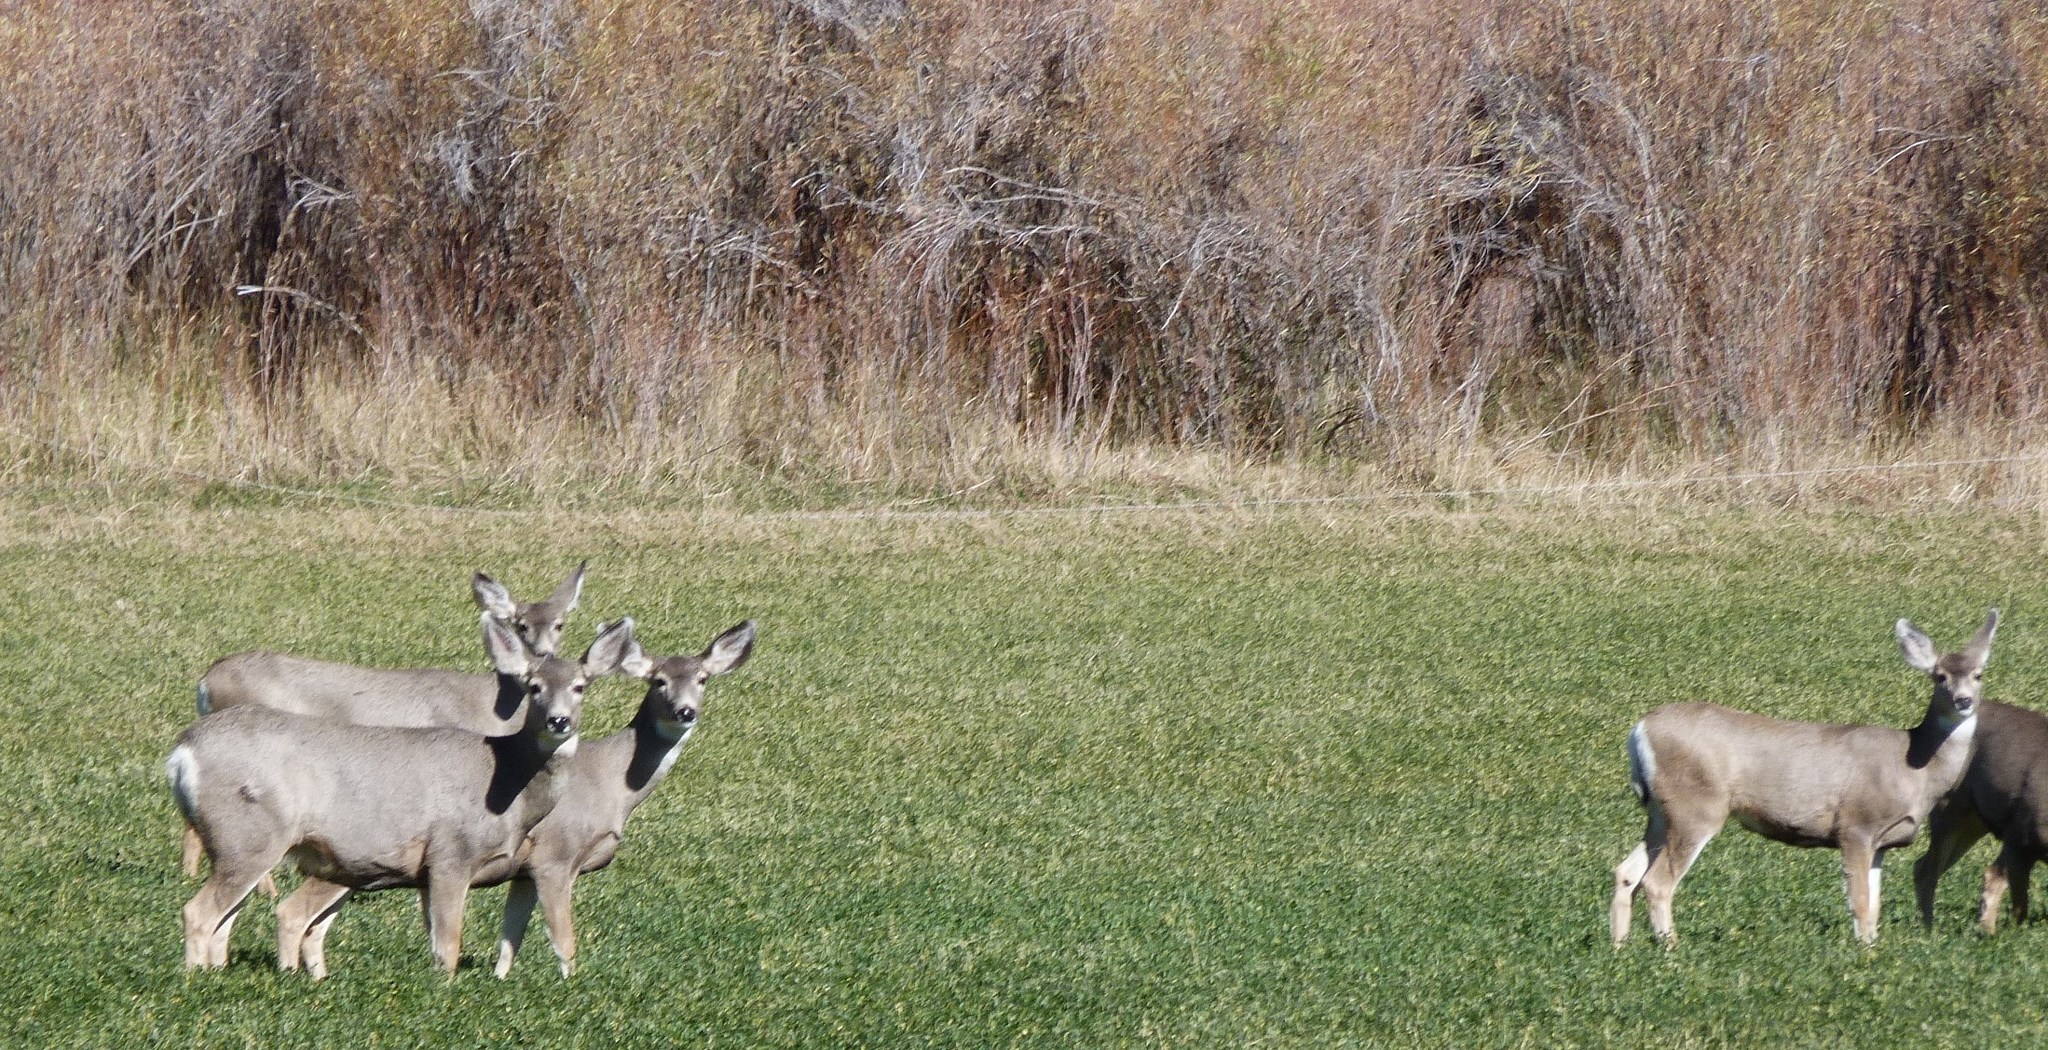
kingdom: Animalia
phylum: Chordata
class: Mammalia
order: Artiodactyla
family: Cervidae
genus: Odocoileus
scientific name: Odocoileus hemionus
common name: Mule deer
